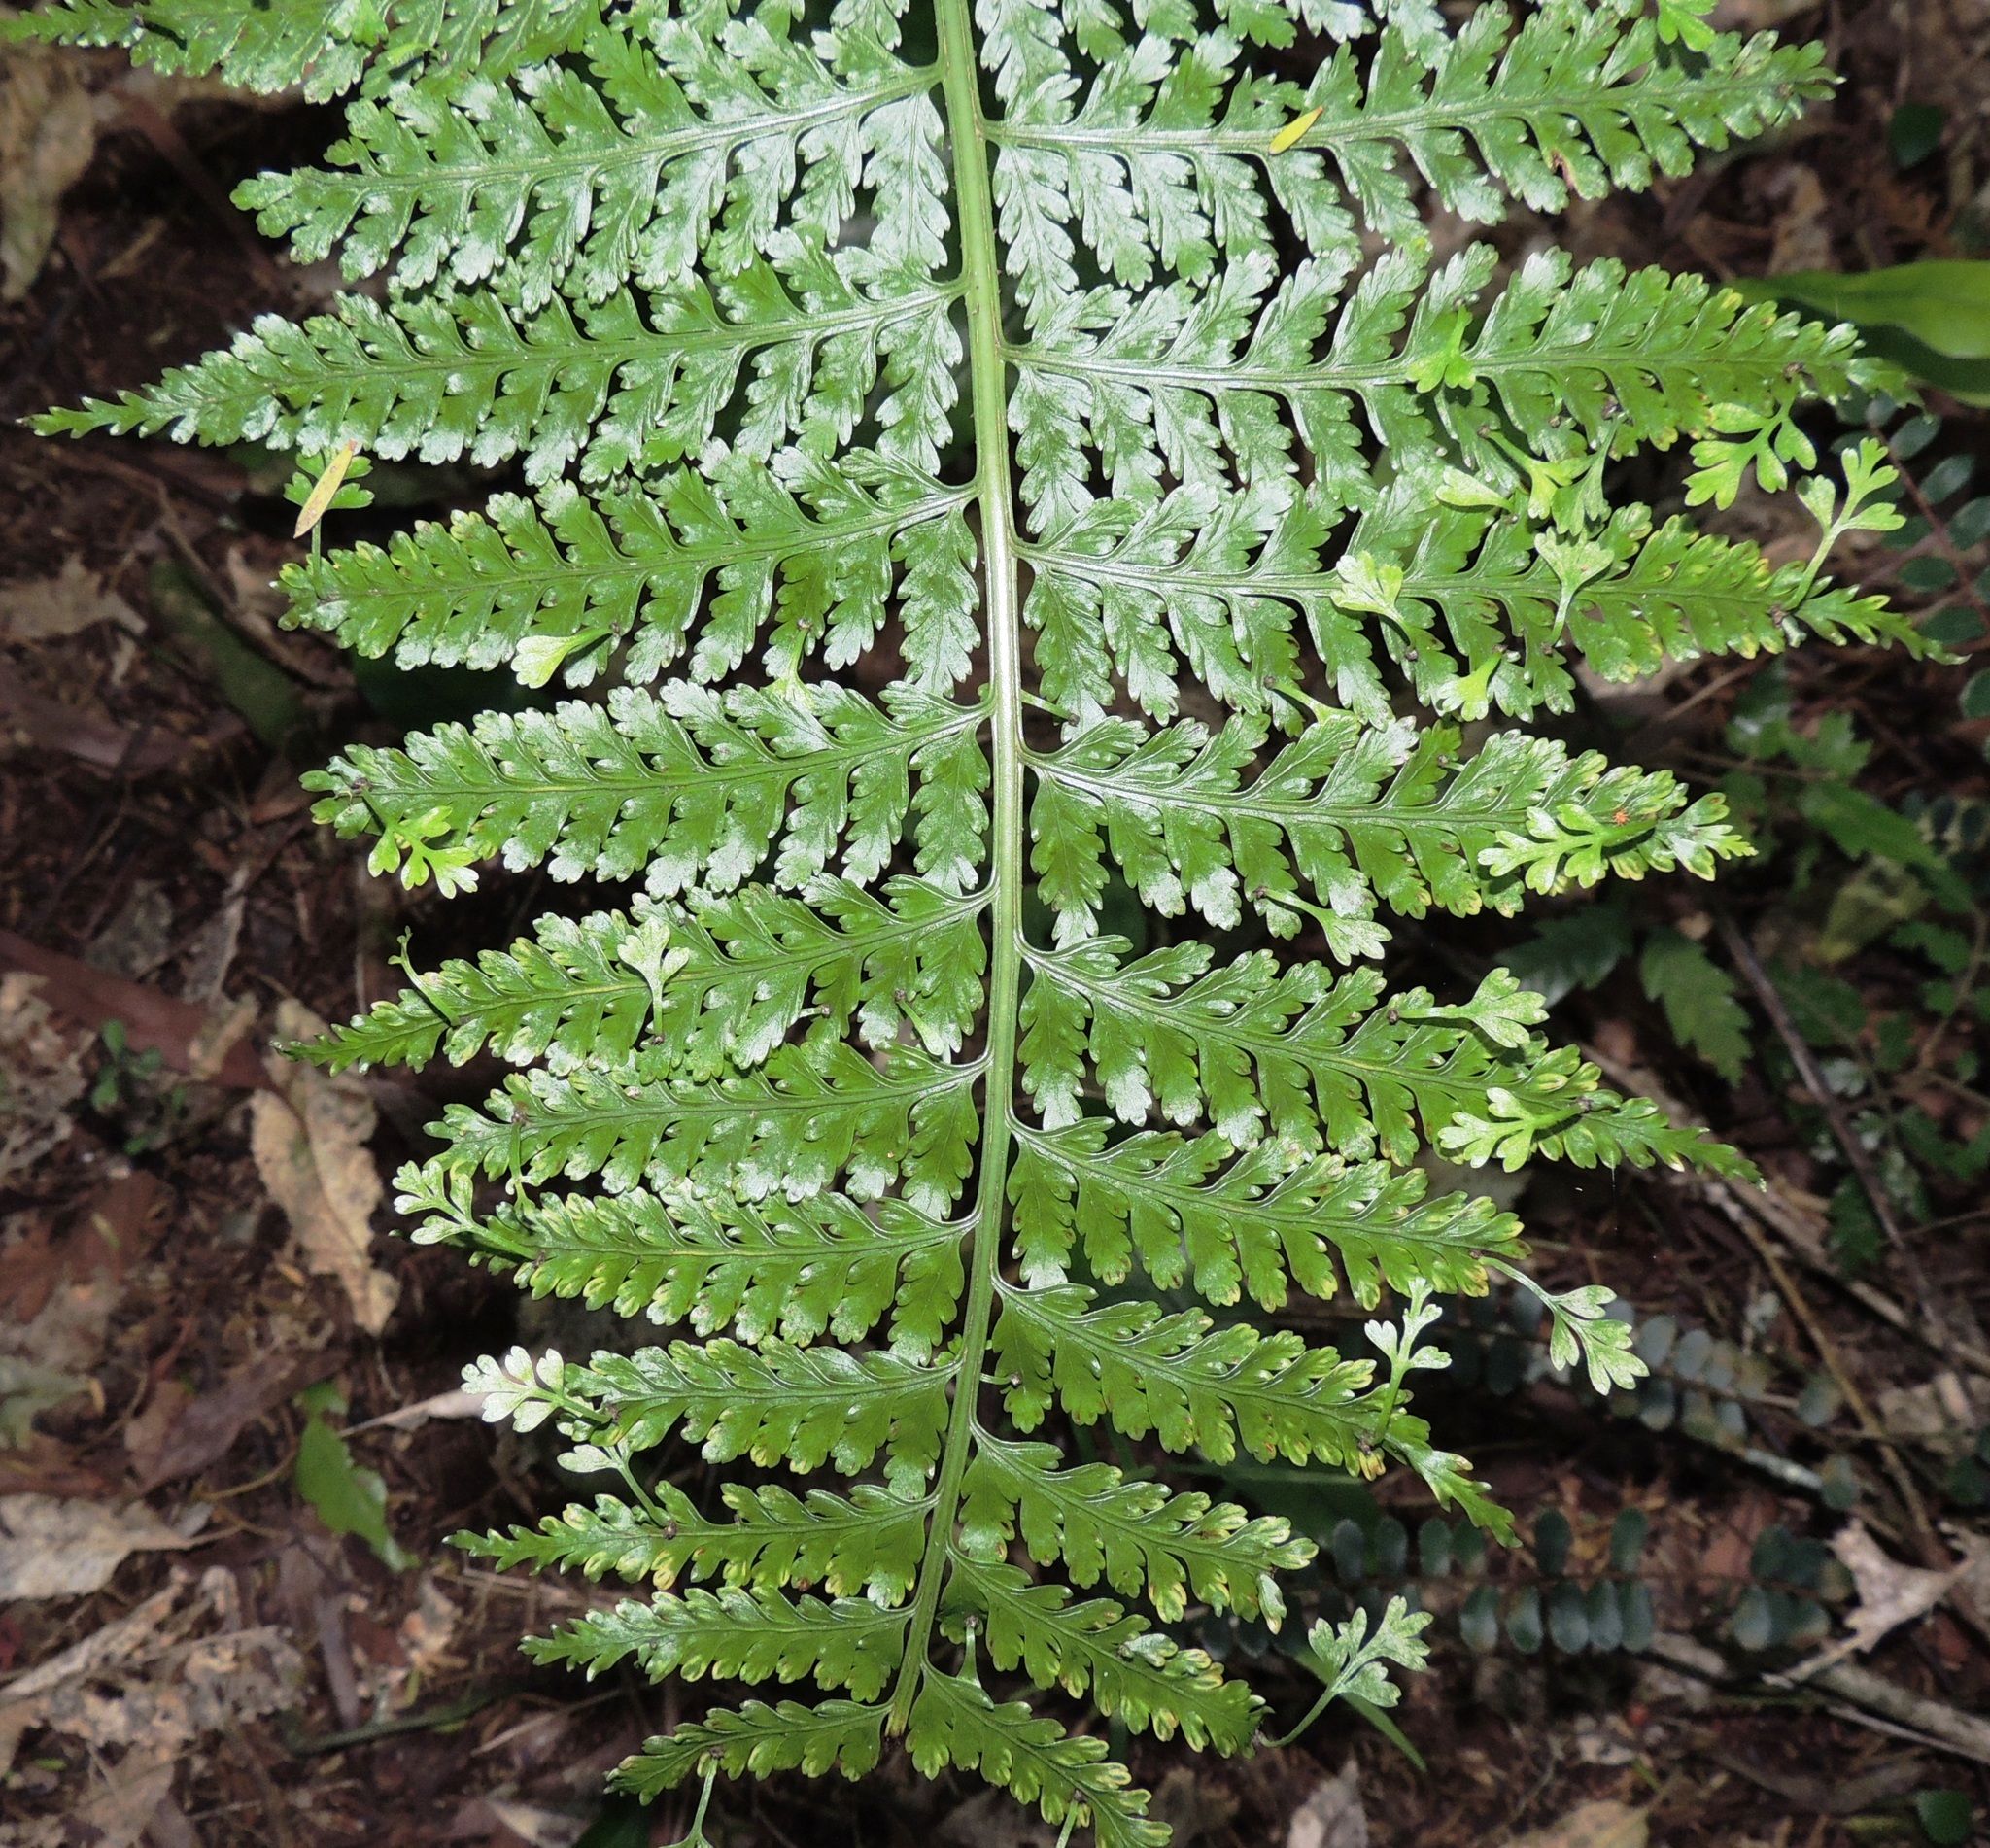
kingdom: Plantae
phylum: Tracheophyta
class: Polypodiopsida
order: Polypodiales
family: Aspleniaceae
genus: Asplenium
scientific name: Asplenium bulbiferum
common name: Mother fern
